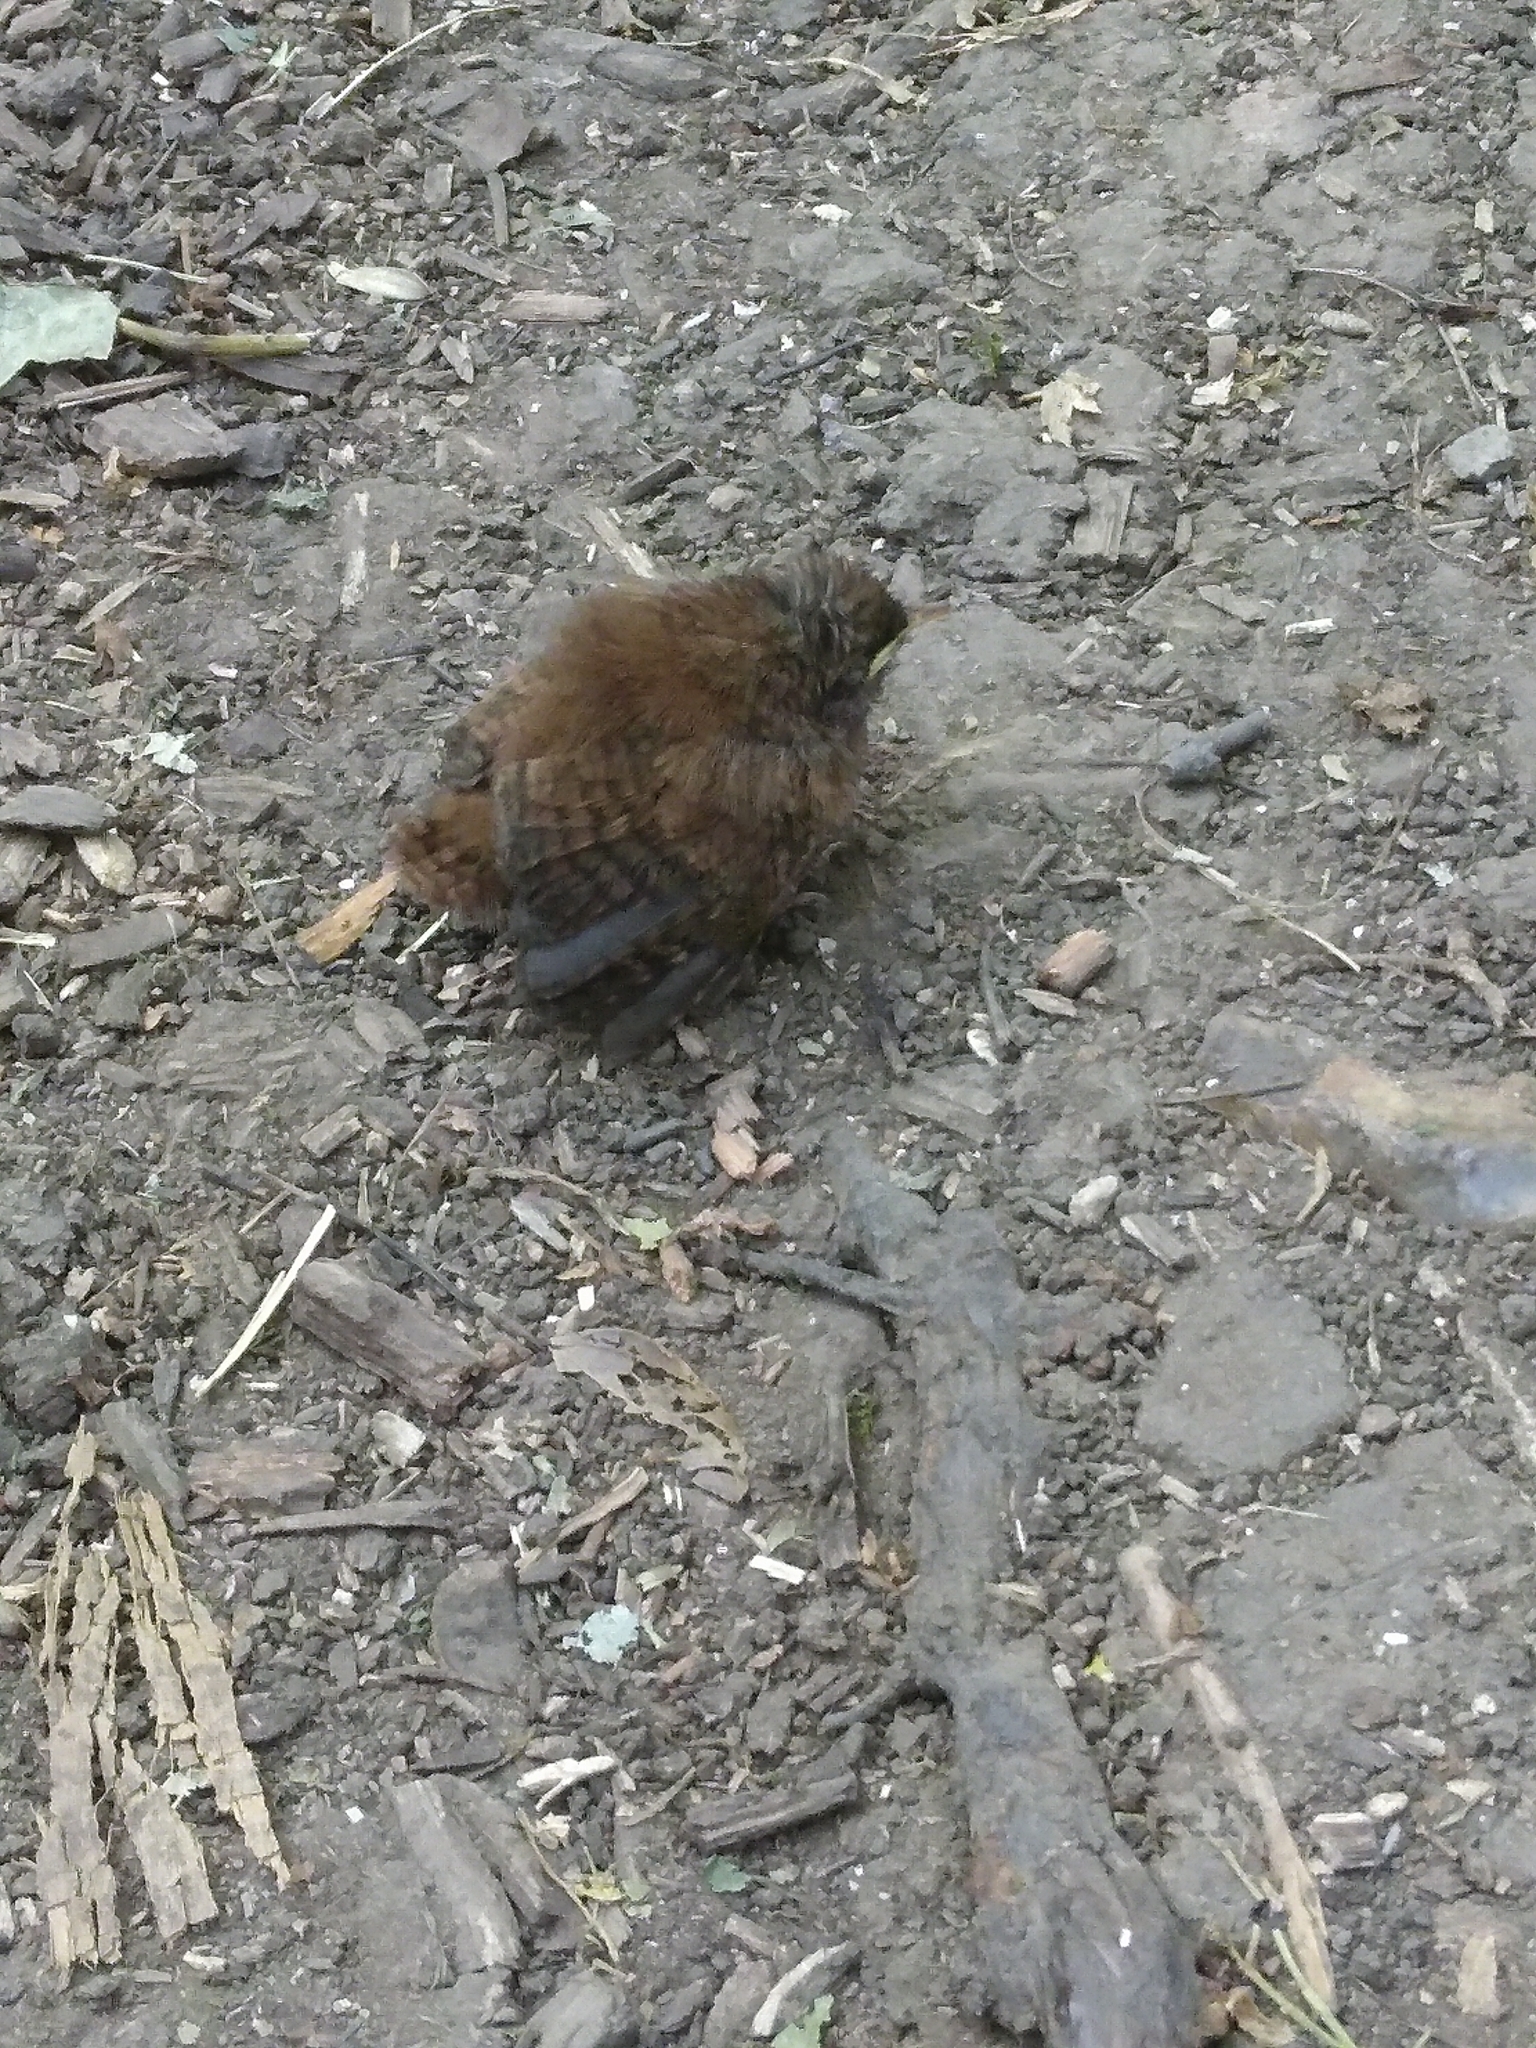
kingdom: Animalia
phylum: Chordata
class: Aves
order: Passeriformes
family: Troglodytidae
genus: Troglodytes
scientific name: Troglodytes troglodytes
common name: Eurasian wren
